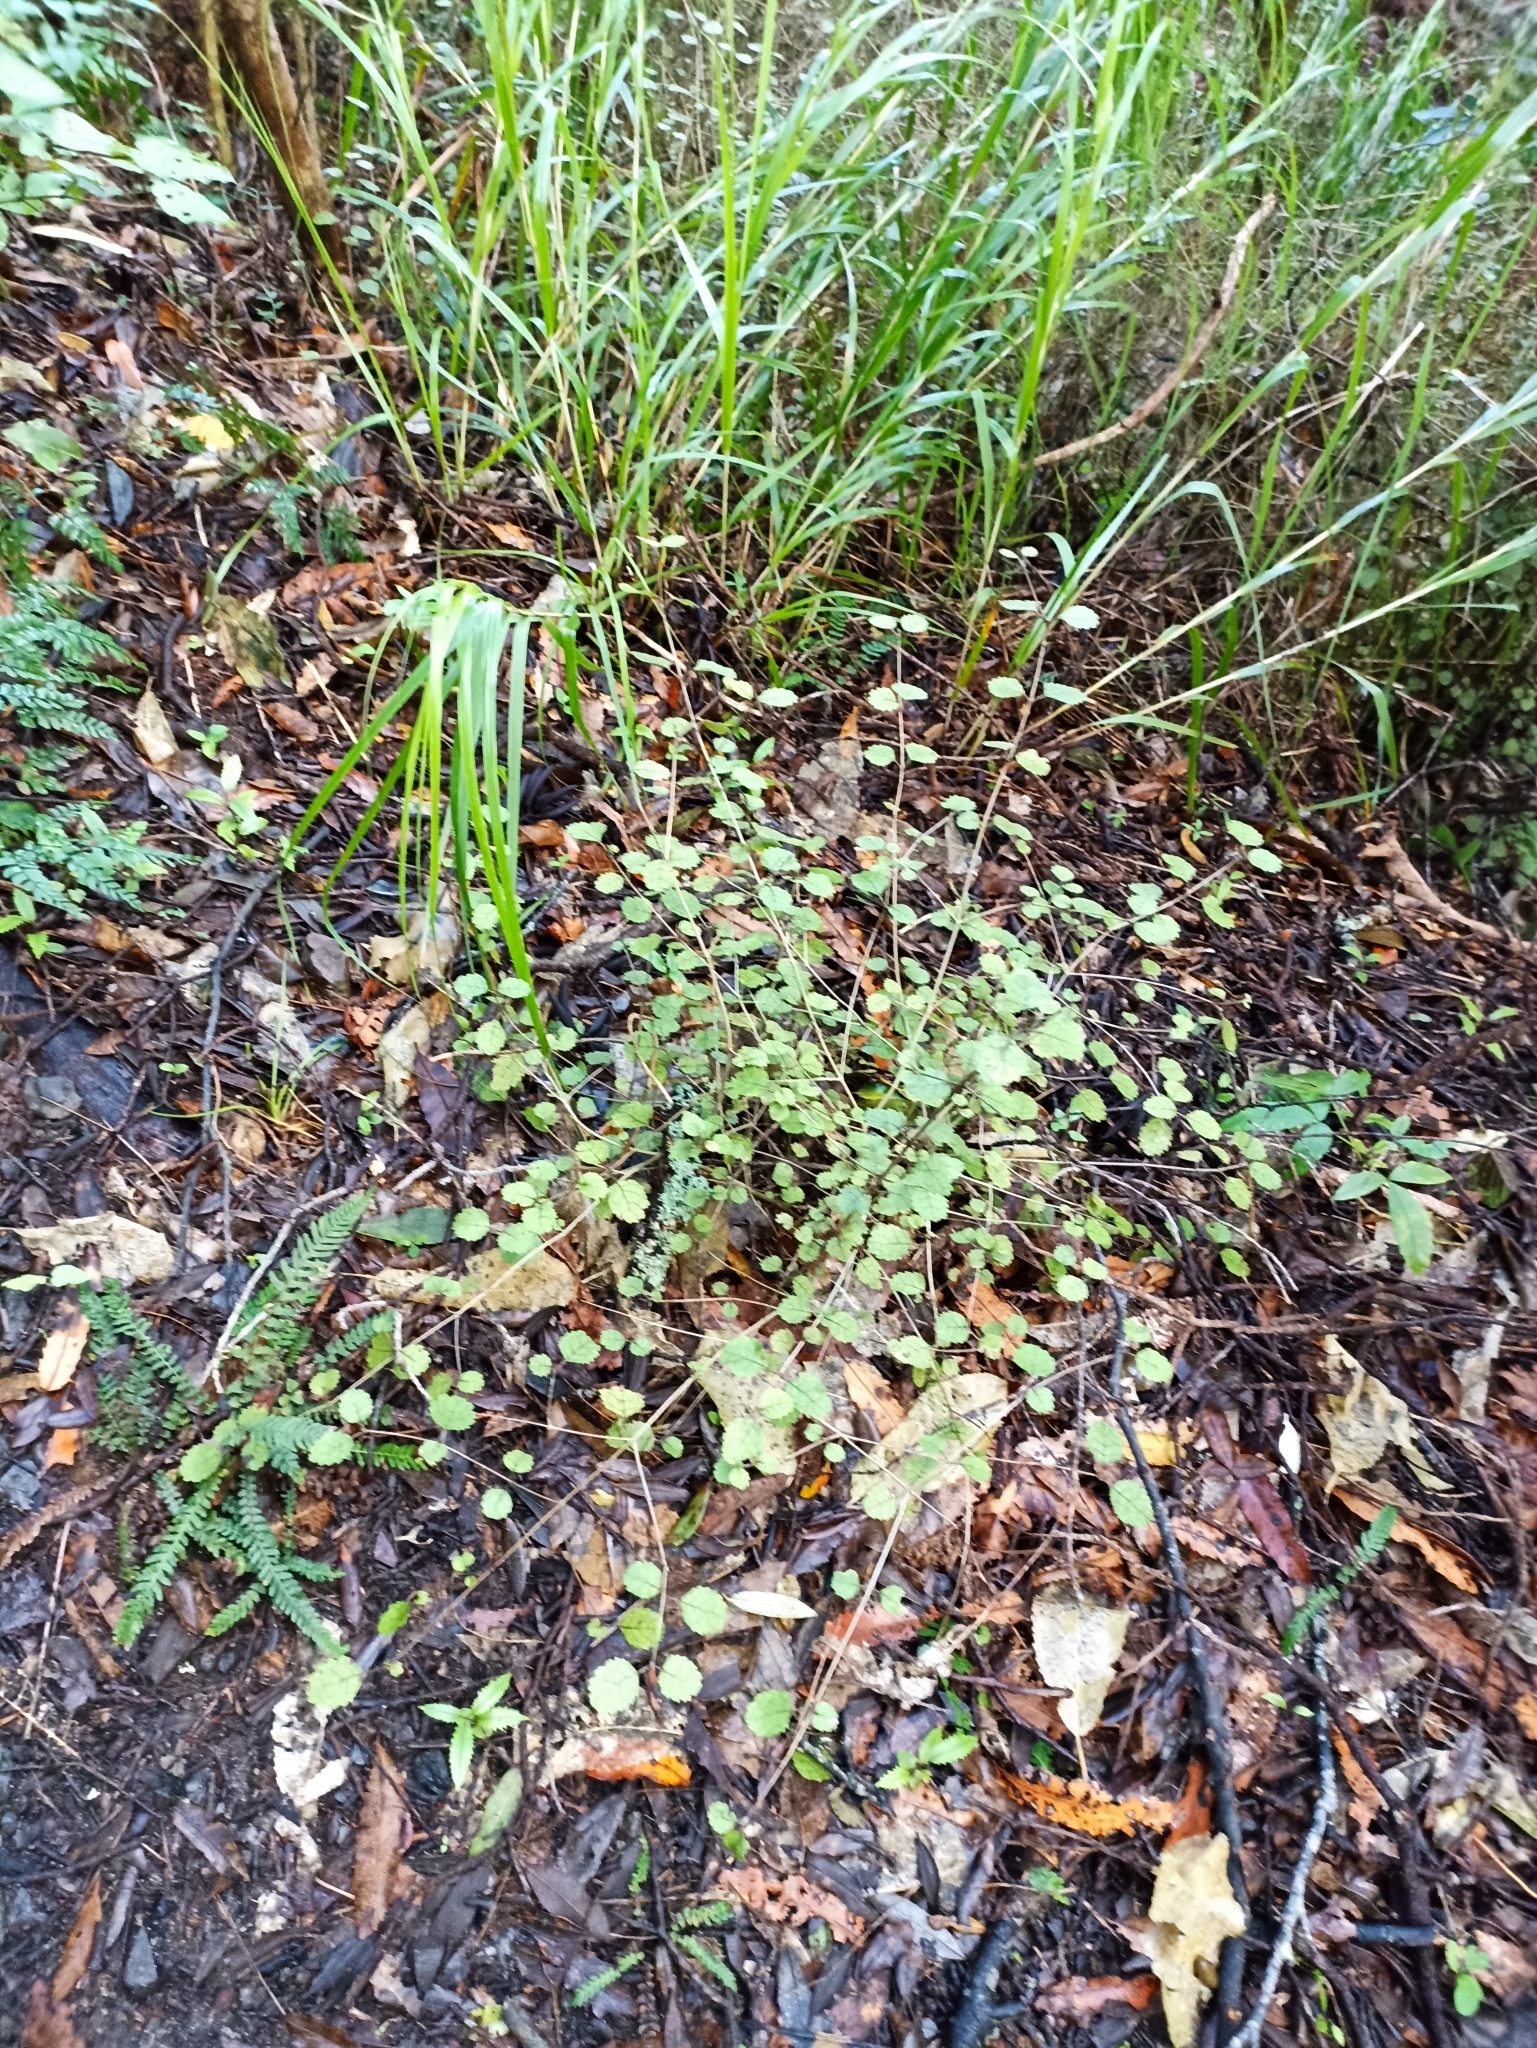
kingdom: Plantae
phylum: Tracheophyta
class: Magnoliopsida
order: Lamiales
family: Gesneriaceae
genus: Rhabdothamnus
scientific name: Rhabdothamnus solandri
